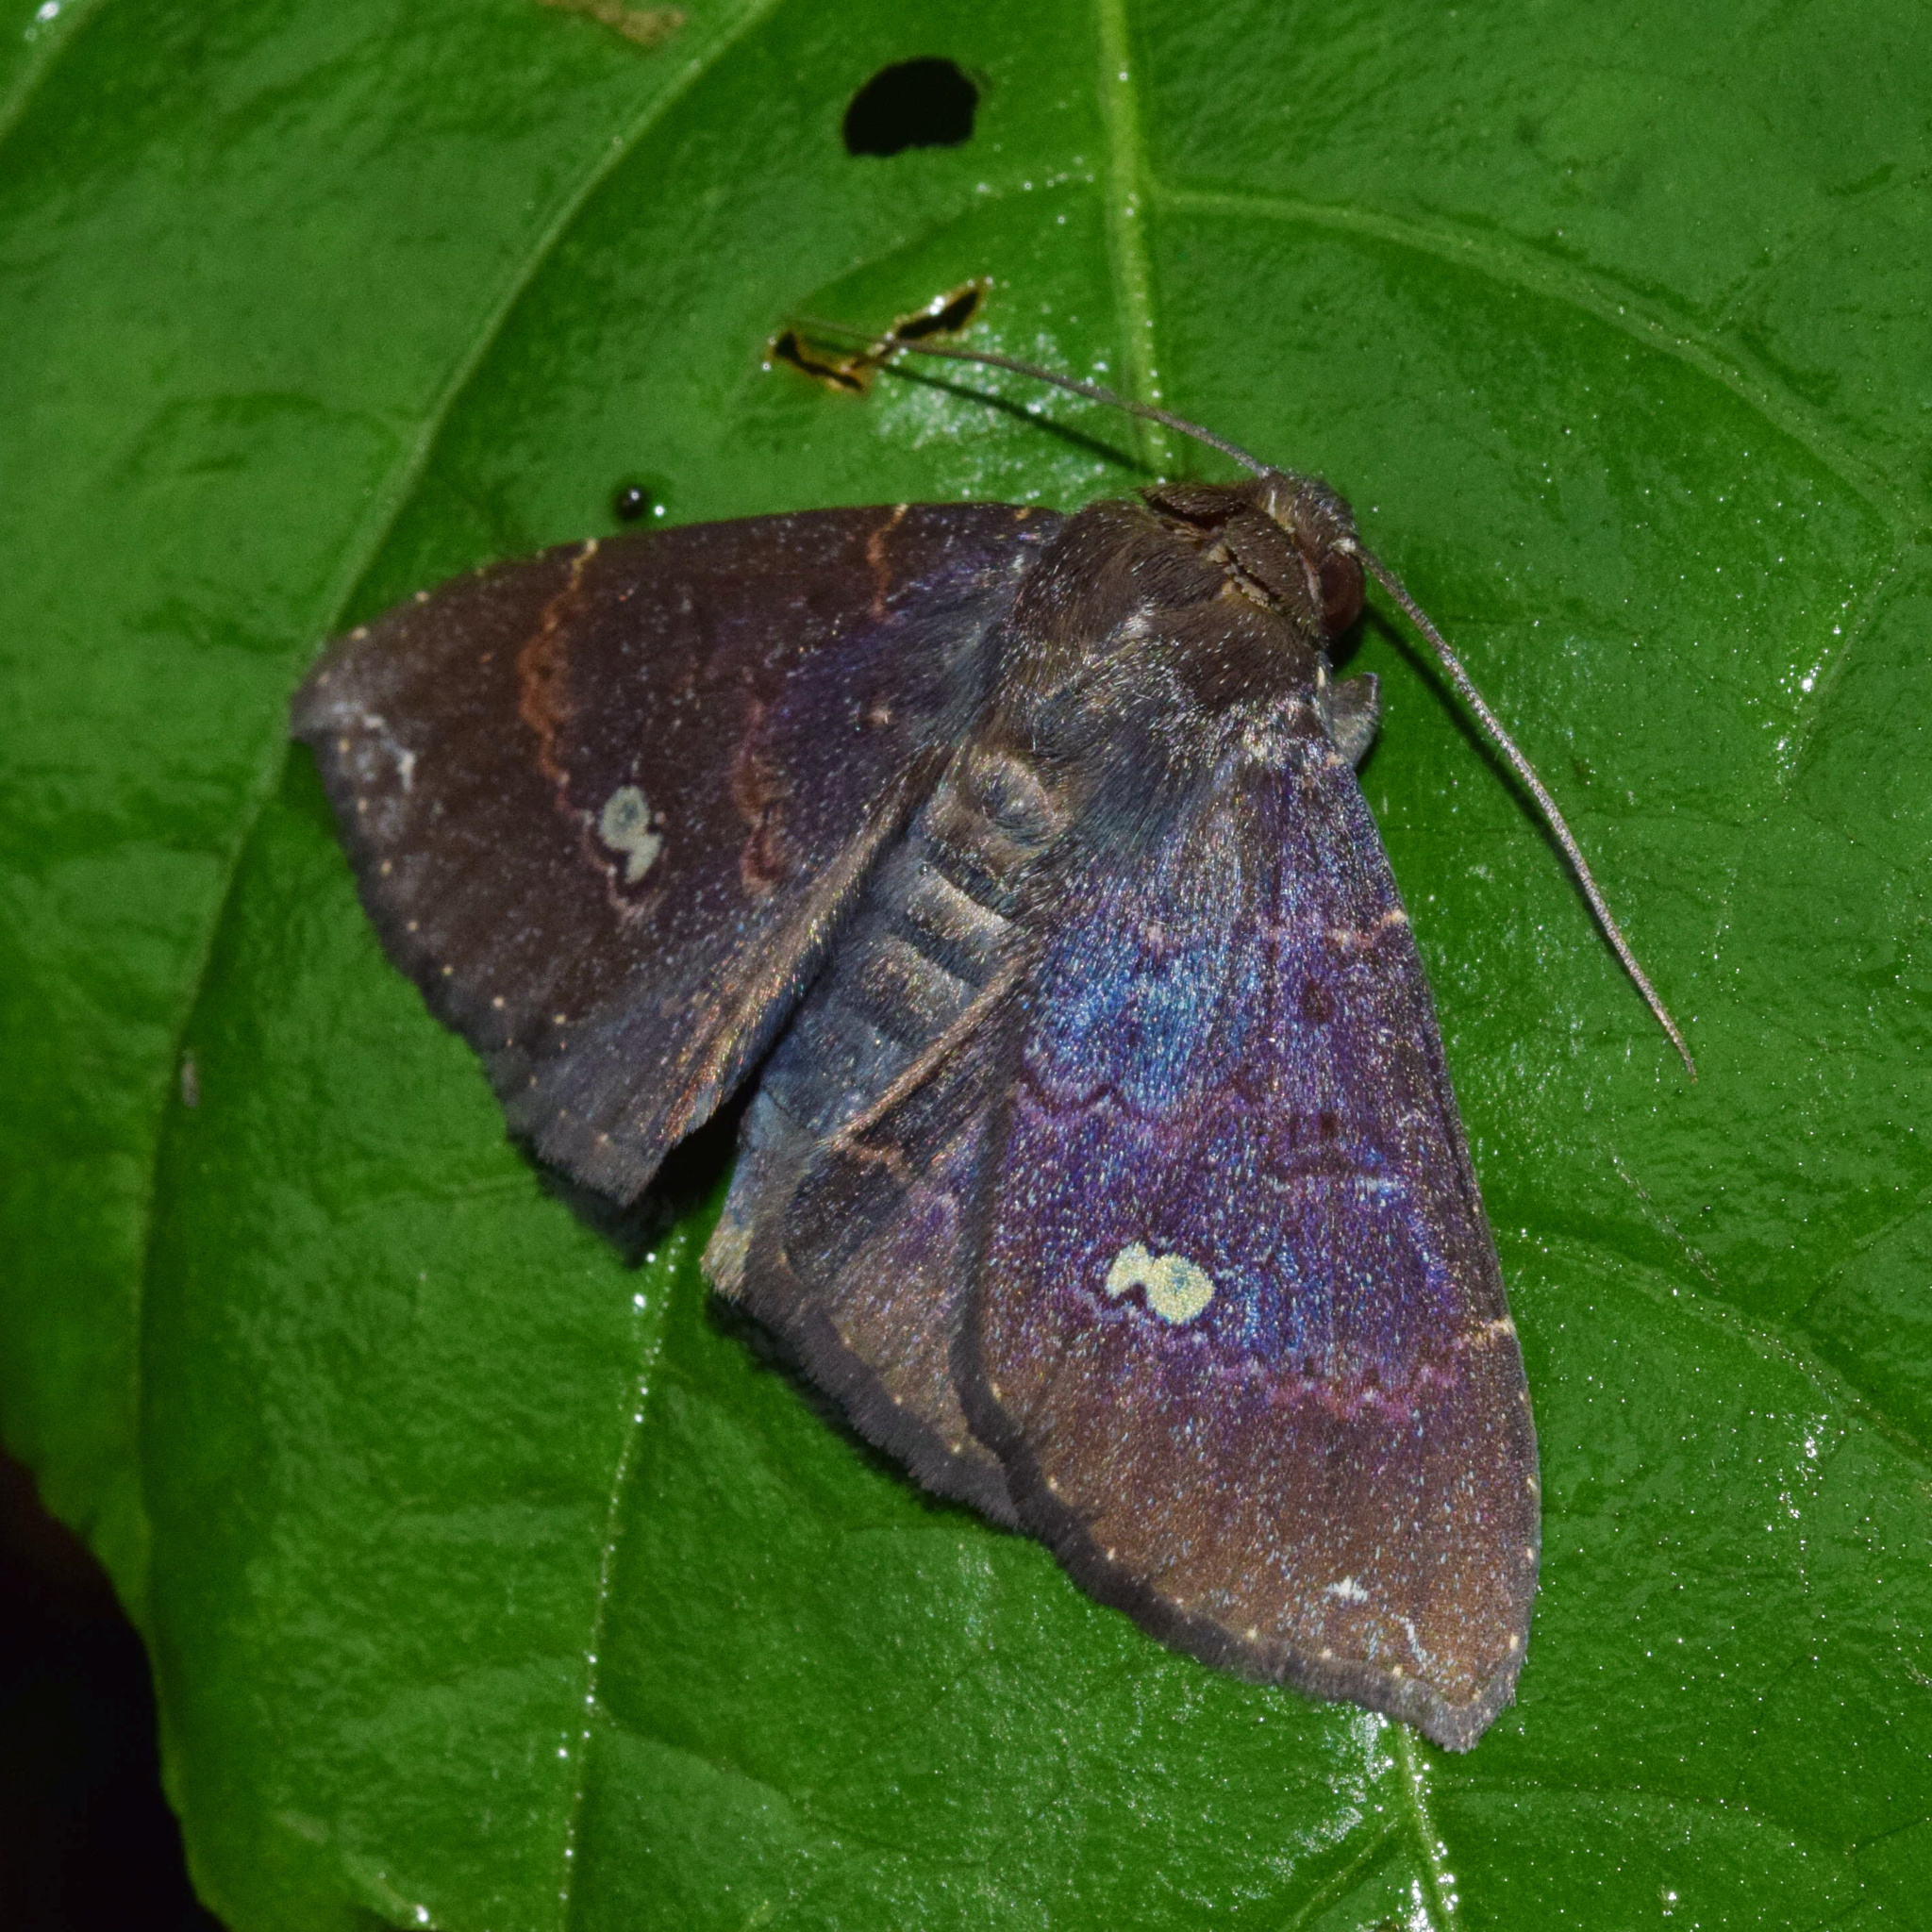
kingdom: Animalia
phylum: Arthropoda
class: Insecta
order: Lepidoptera
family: Erebidae
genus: Platyja
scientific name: Platyja vacillans
